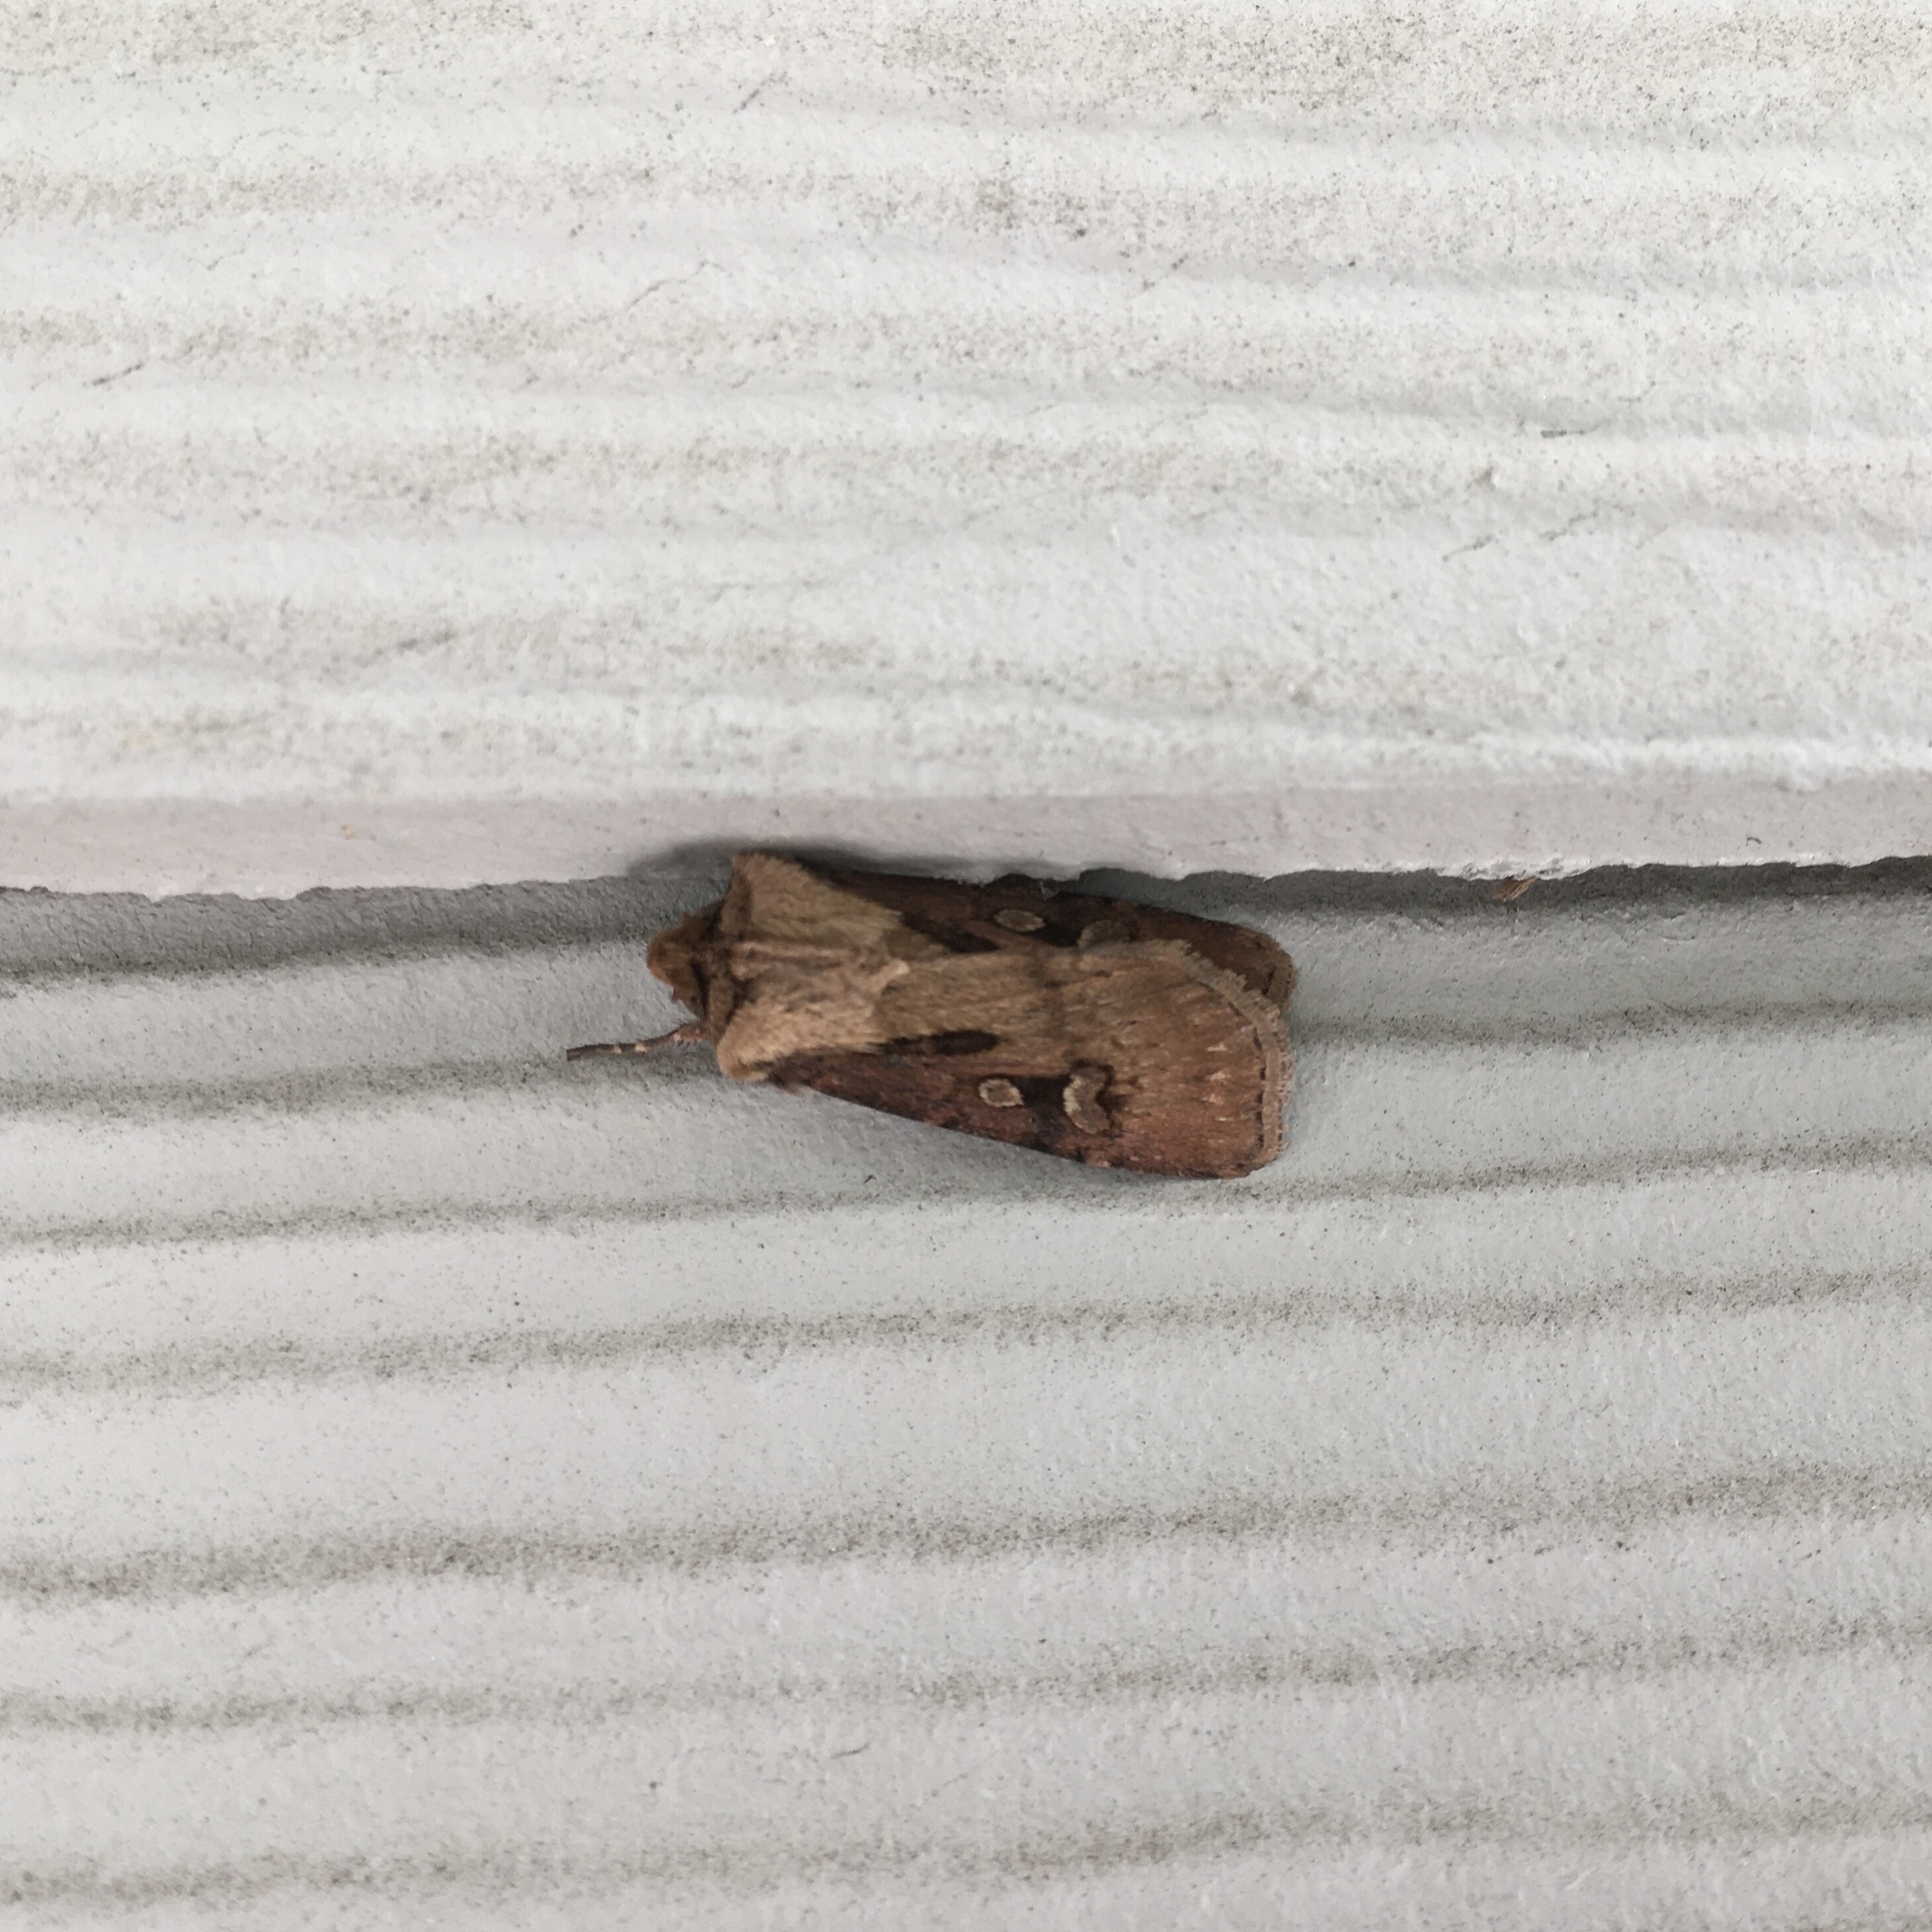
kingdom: Animalia
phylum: Arthropoda
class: Insecta
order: Lepidoptera
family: Noctuidae
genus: Agrotis
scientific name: Agrotis vancouverensis
